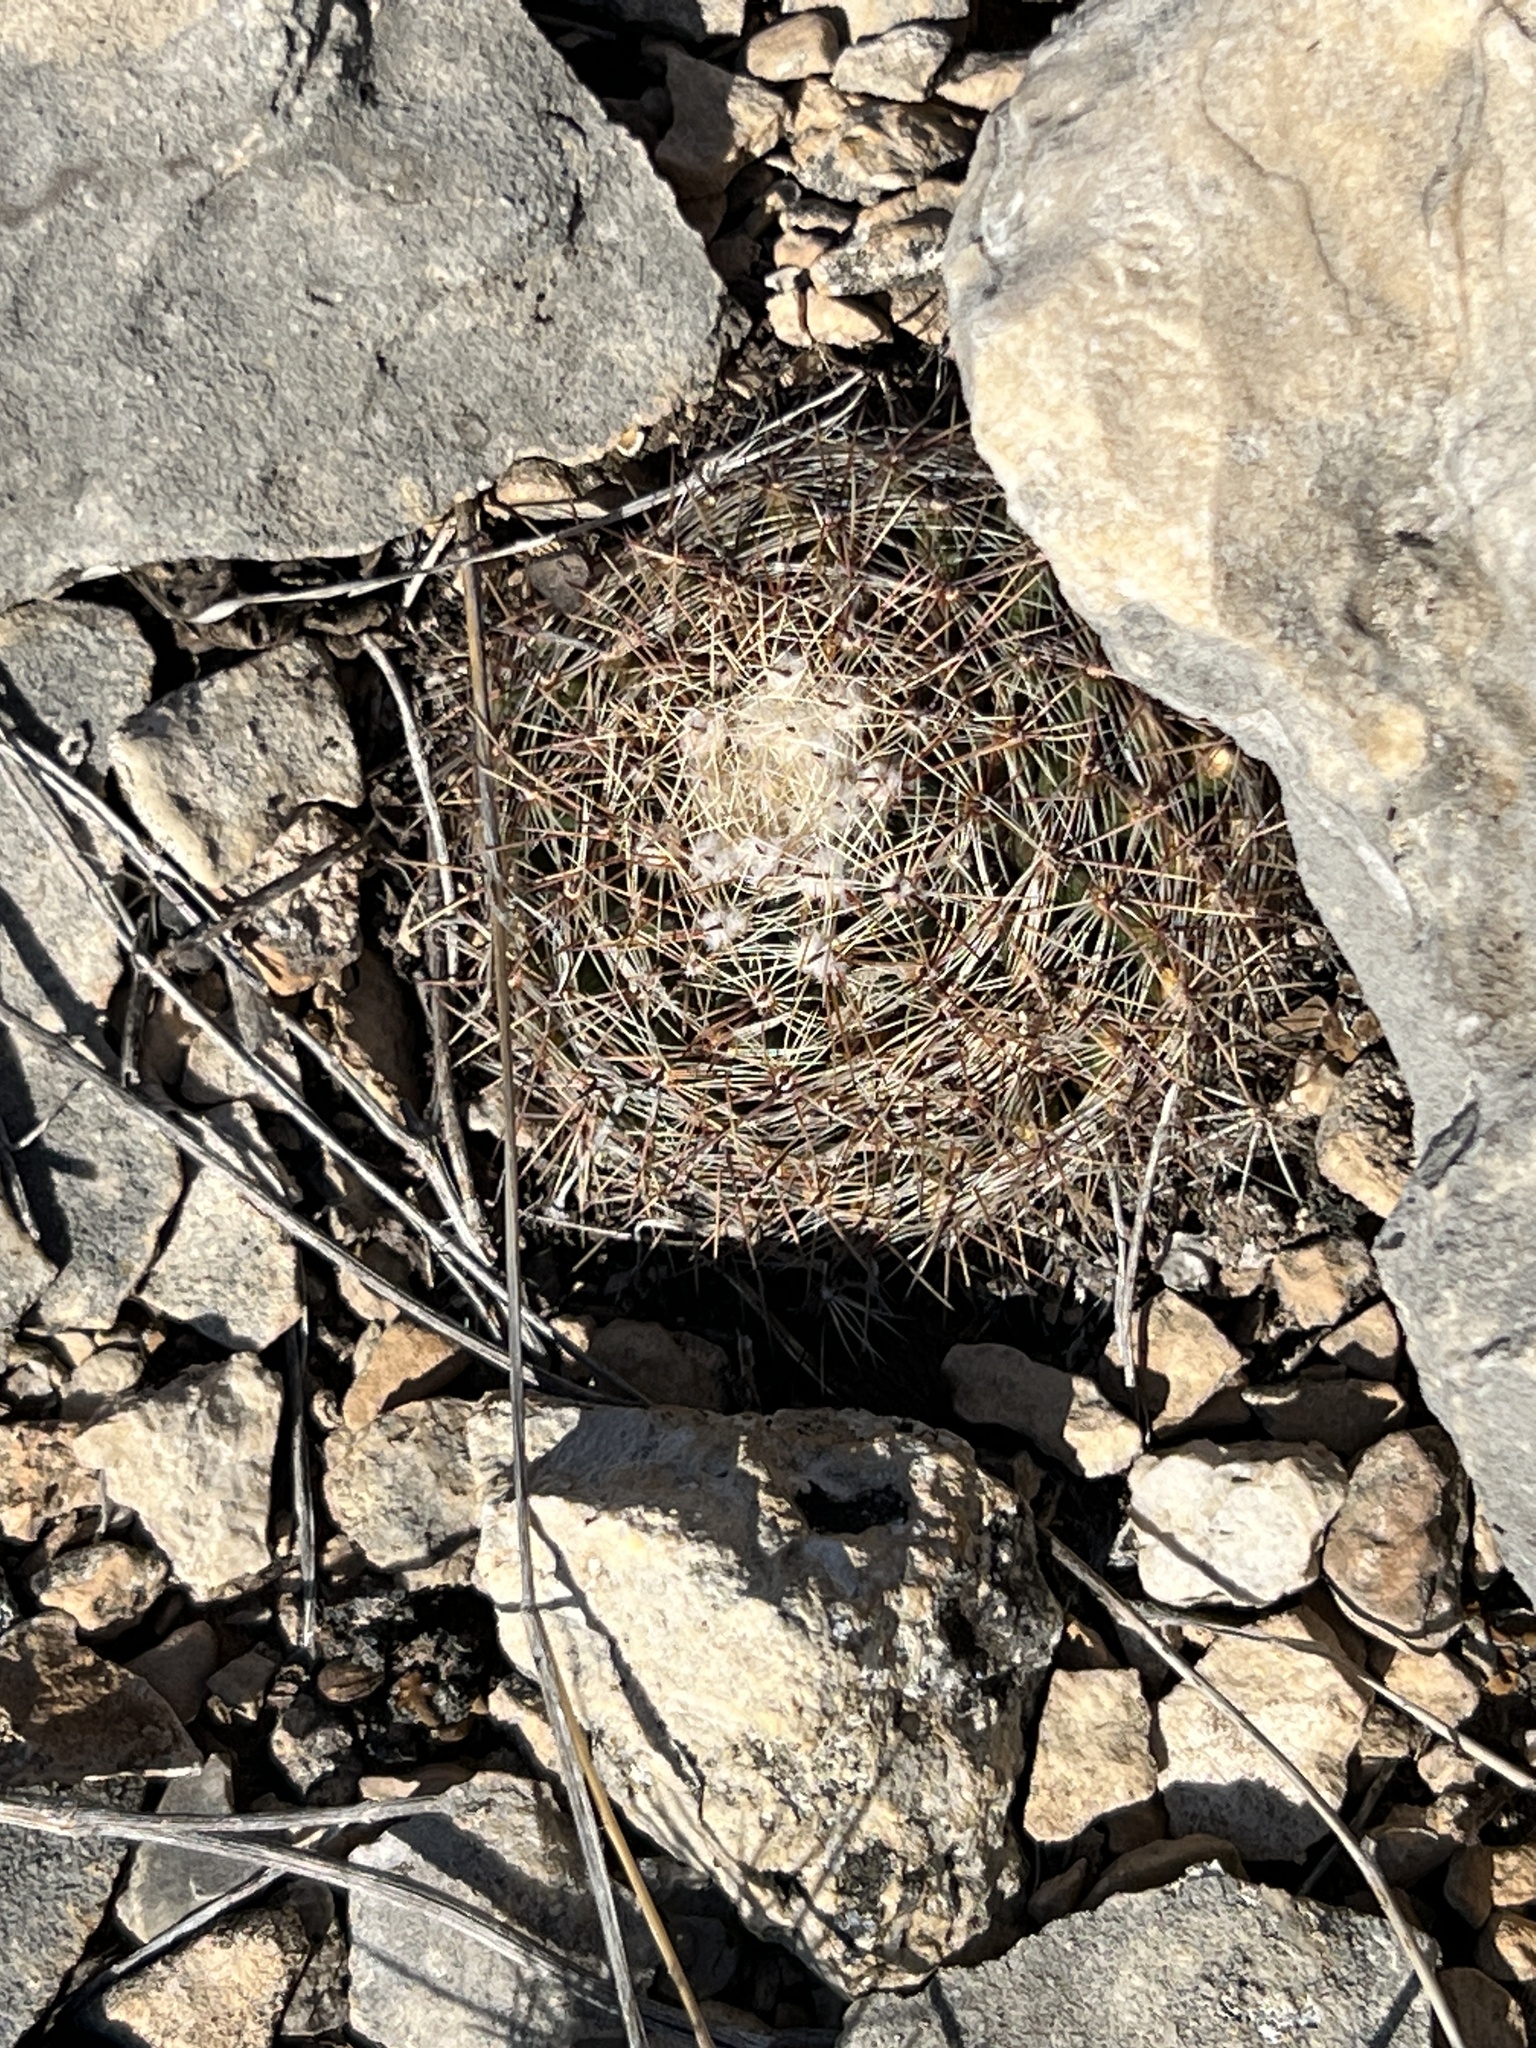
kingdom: Plantae
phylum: Tracheophyta
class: Magnoliopsida
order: Caryophyllales
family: Cactaceae
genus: Mammillaria
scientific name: Mammillaria heyderi
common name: Little nipple cactus
